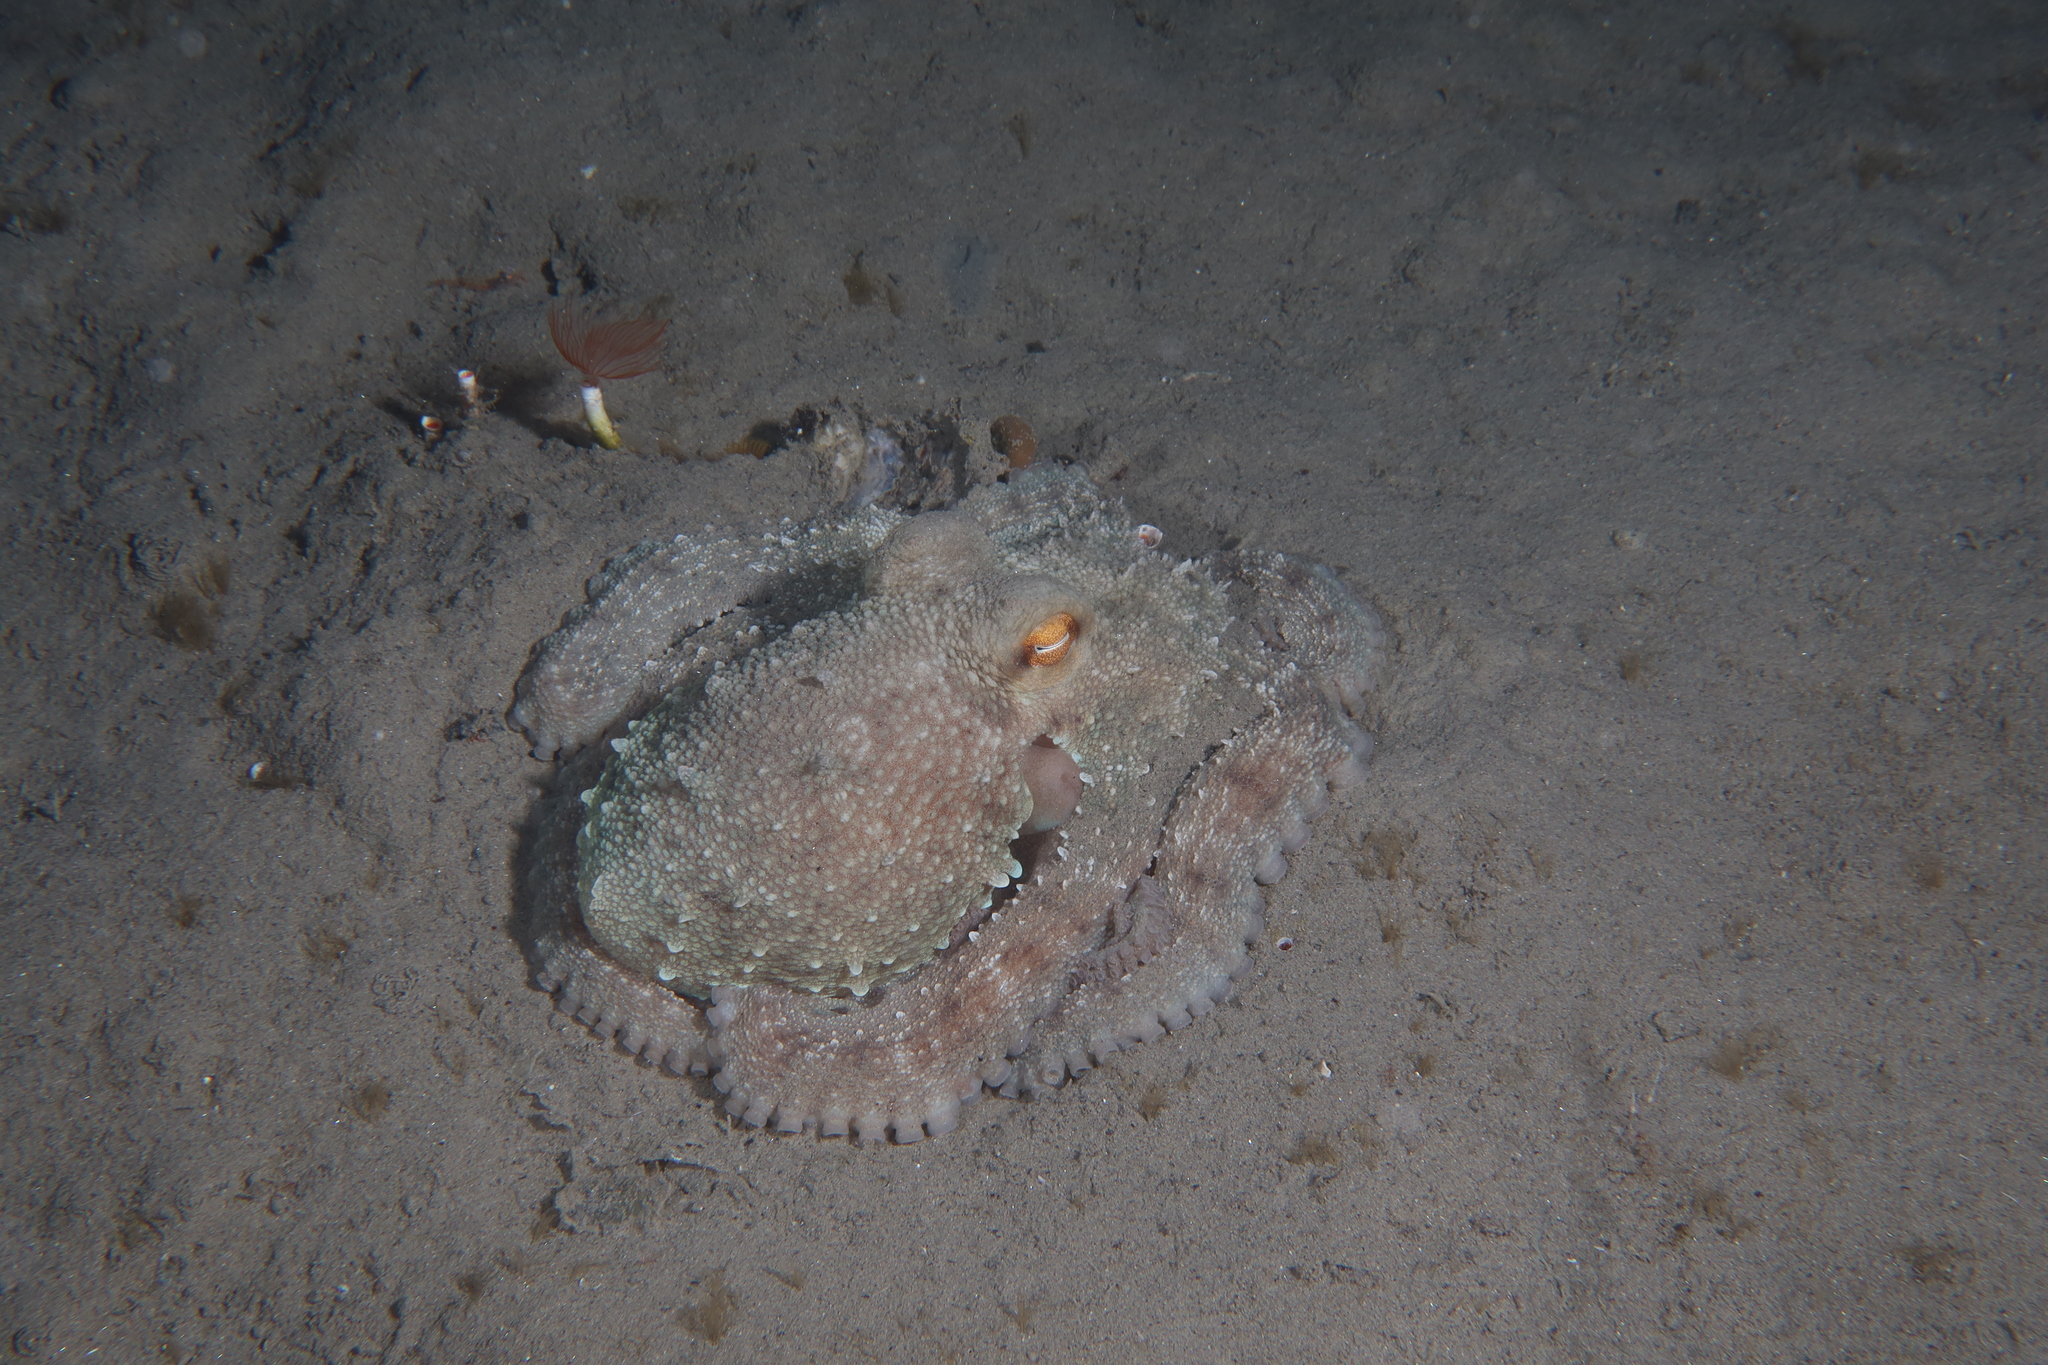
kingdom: Animalia
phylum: Mollusca
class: Cephalopoda
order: Octopoda
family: Octopodidae
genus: Octopus
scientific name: Octopus vulgaris
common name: Common octopus
